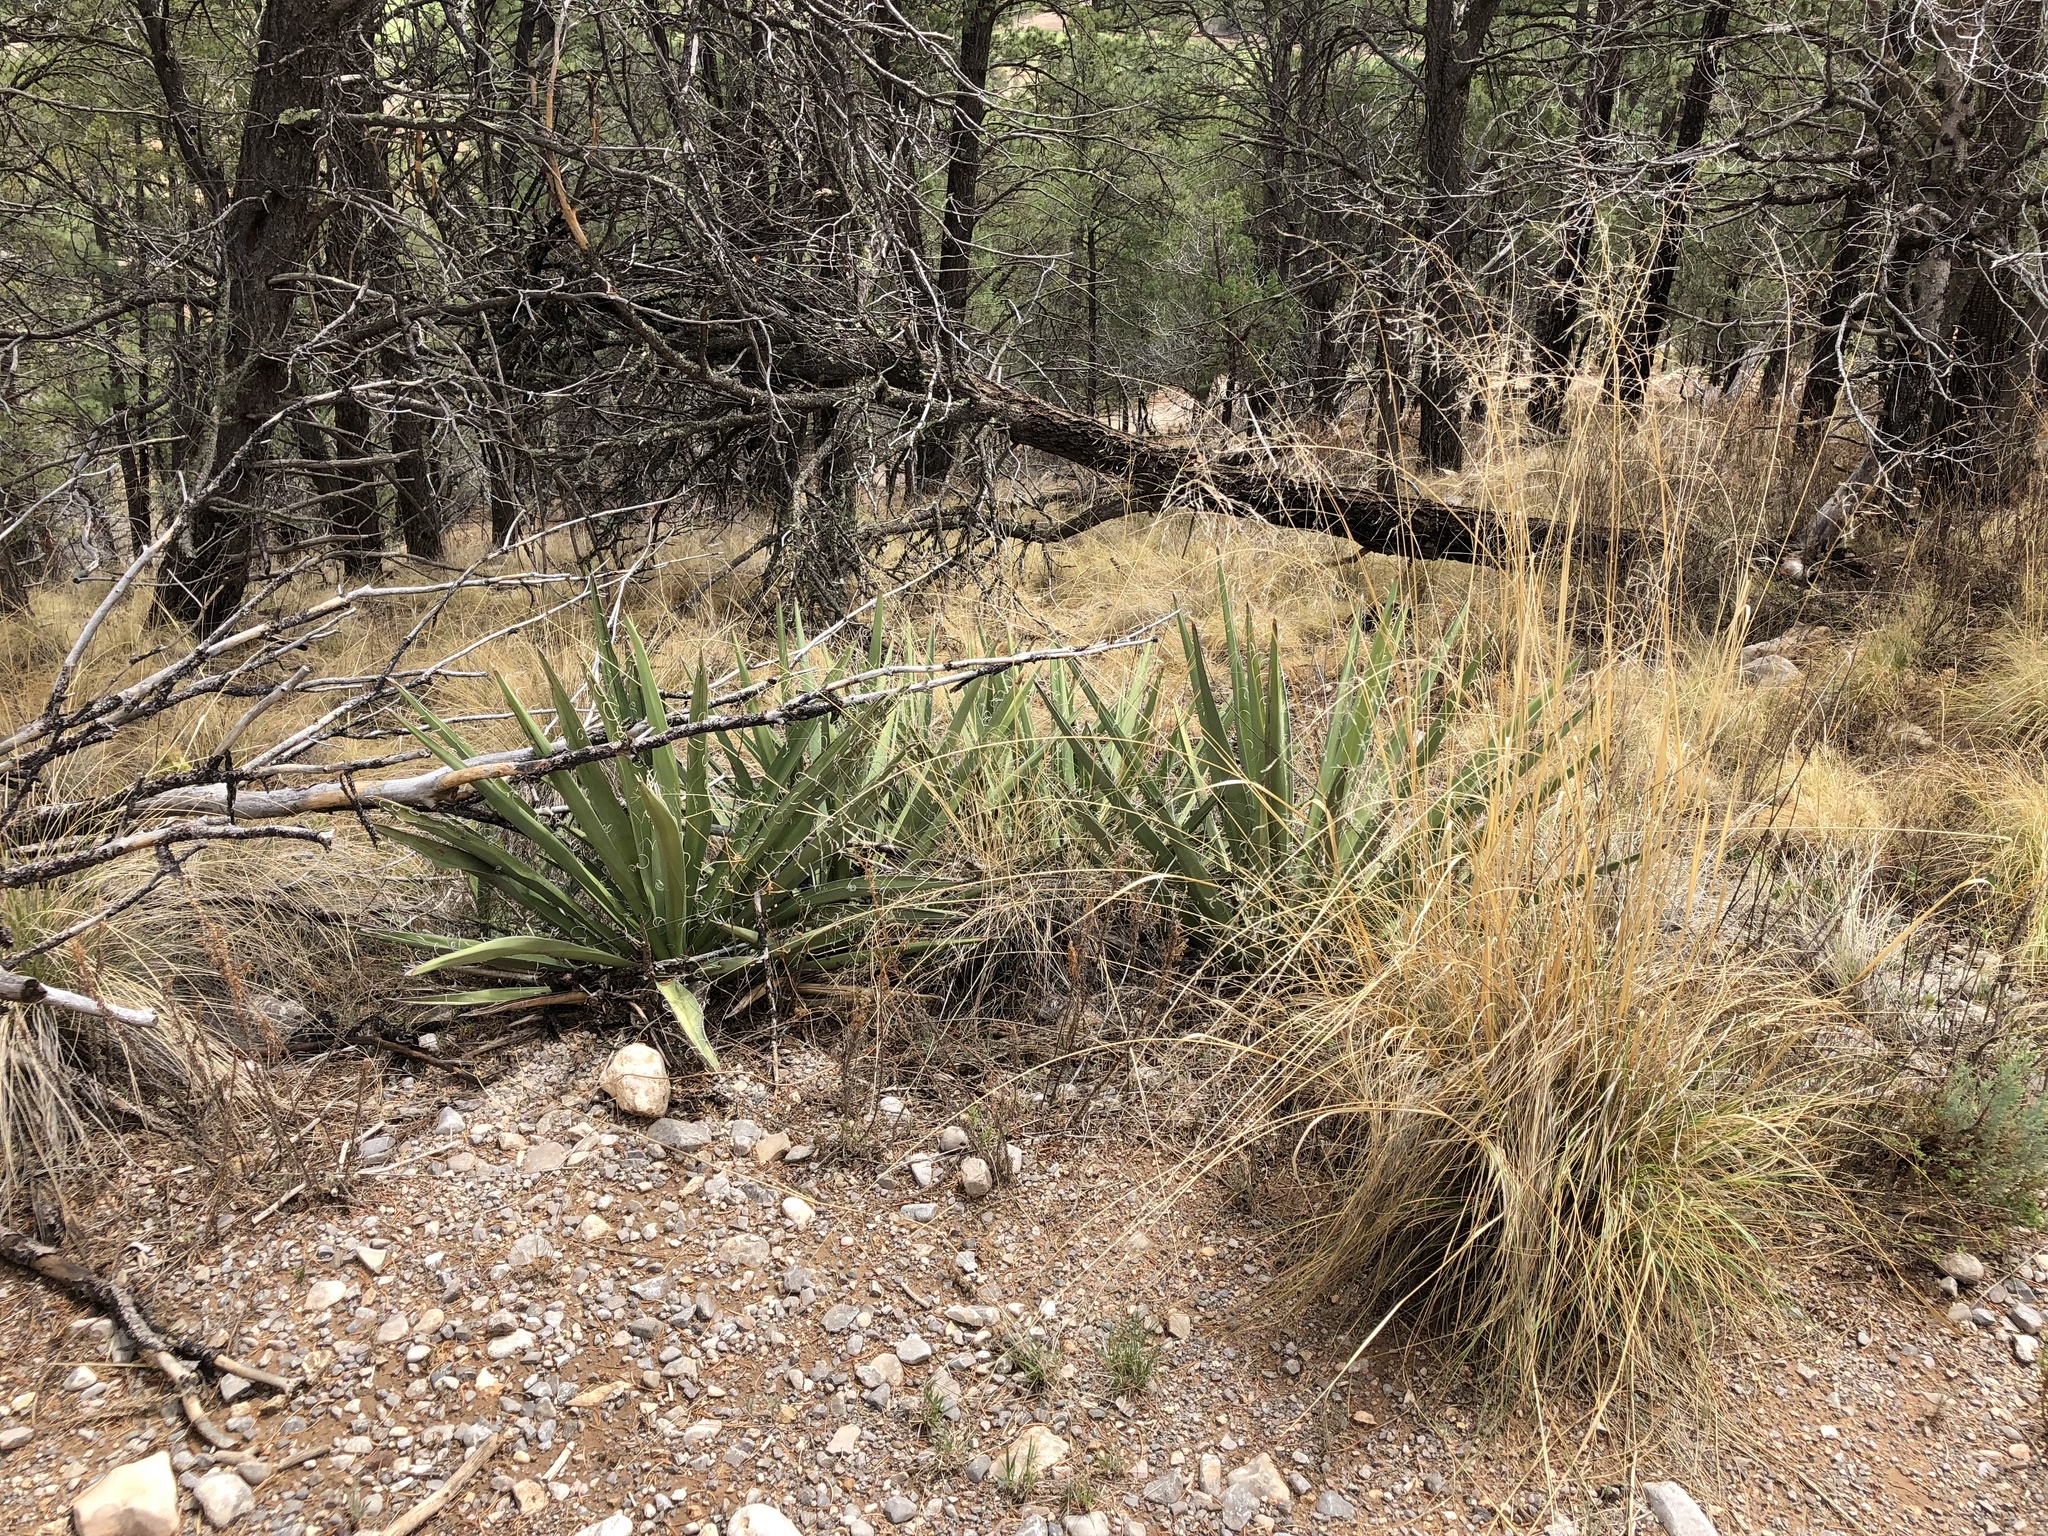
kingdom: Plantae
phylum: Tracheophyta
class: Liliopsida
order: Asparagales
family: Asparagaceae
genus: Yucca
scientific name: Yucca baccata
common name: Banana yucca
